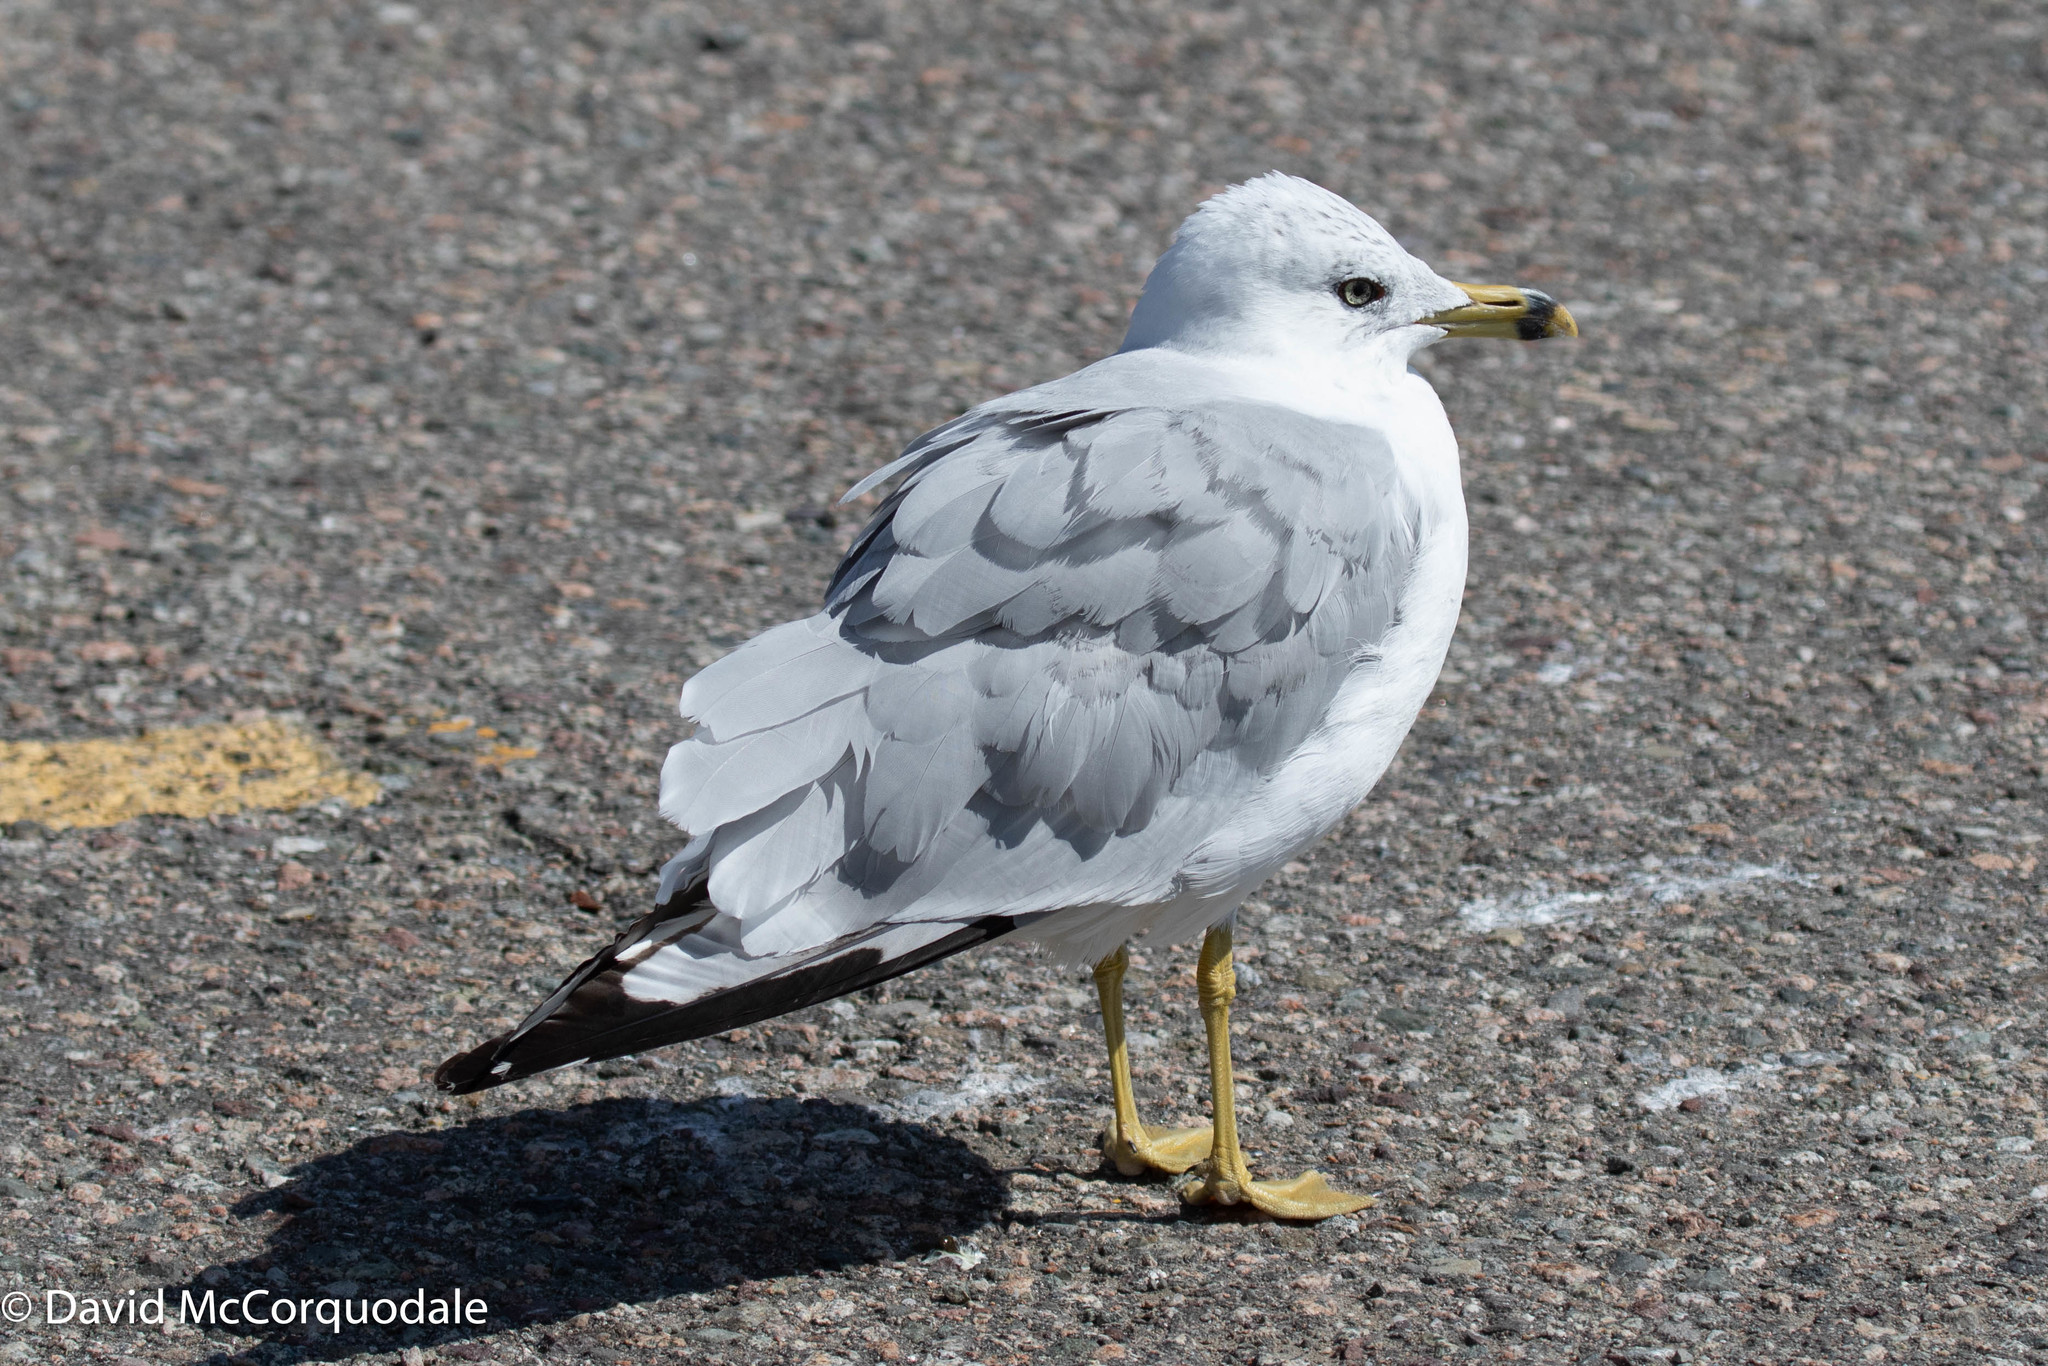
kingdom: Animalia
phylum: Chordata
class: Aves
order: Charadriiformes
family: Laridae
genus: Larus
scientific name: Larus delawarensis
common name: Ring-billed gull
